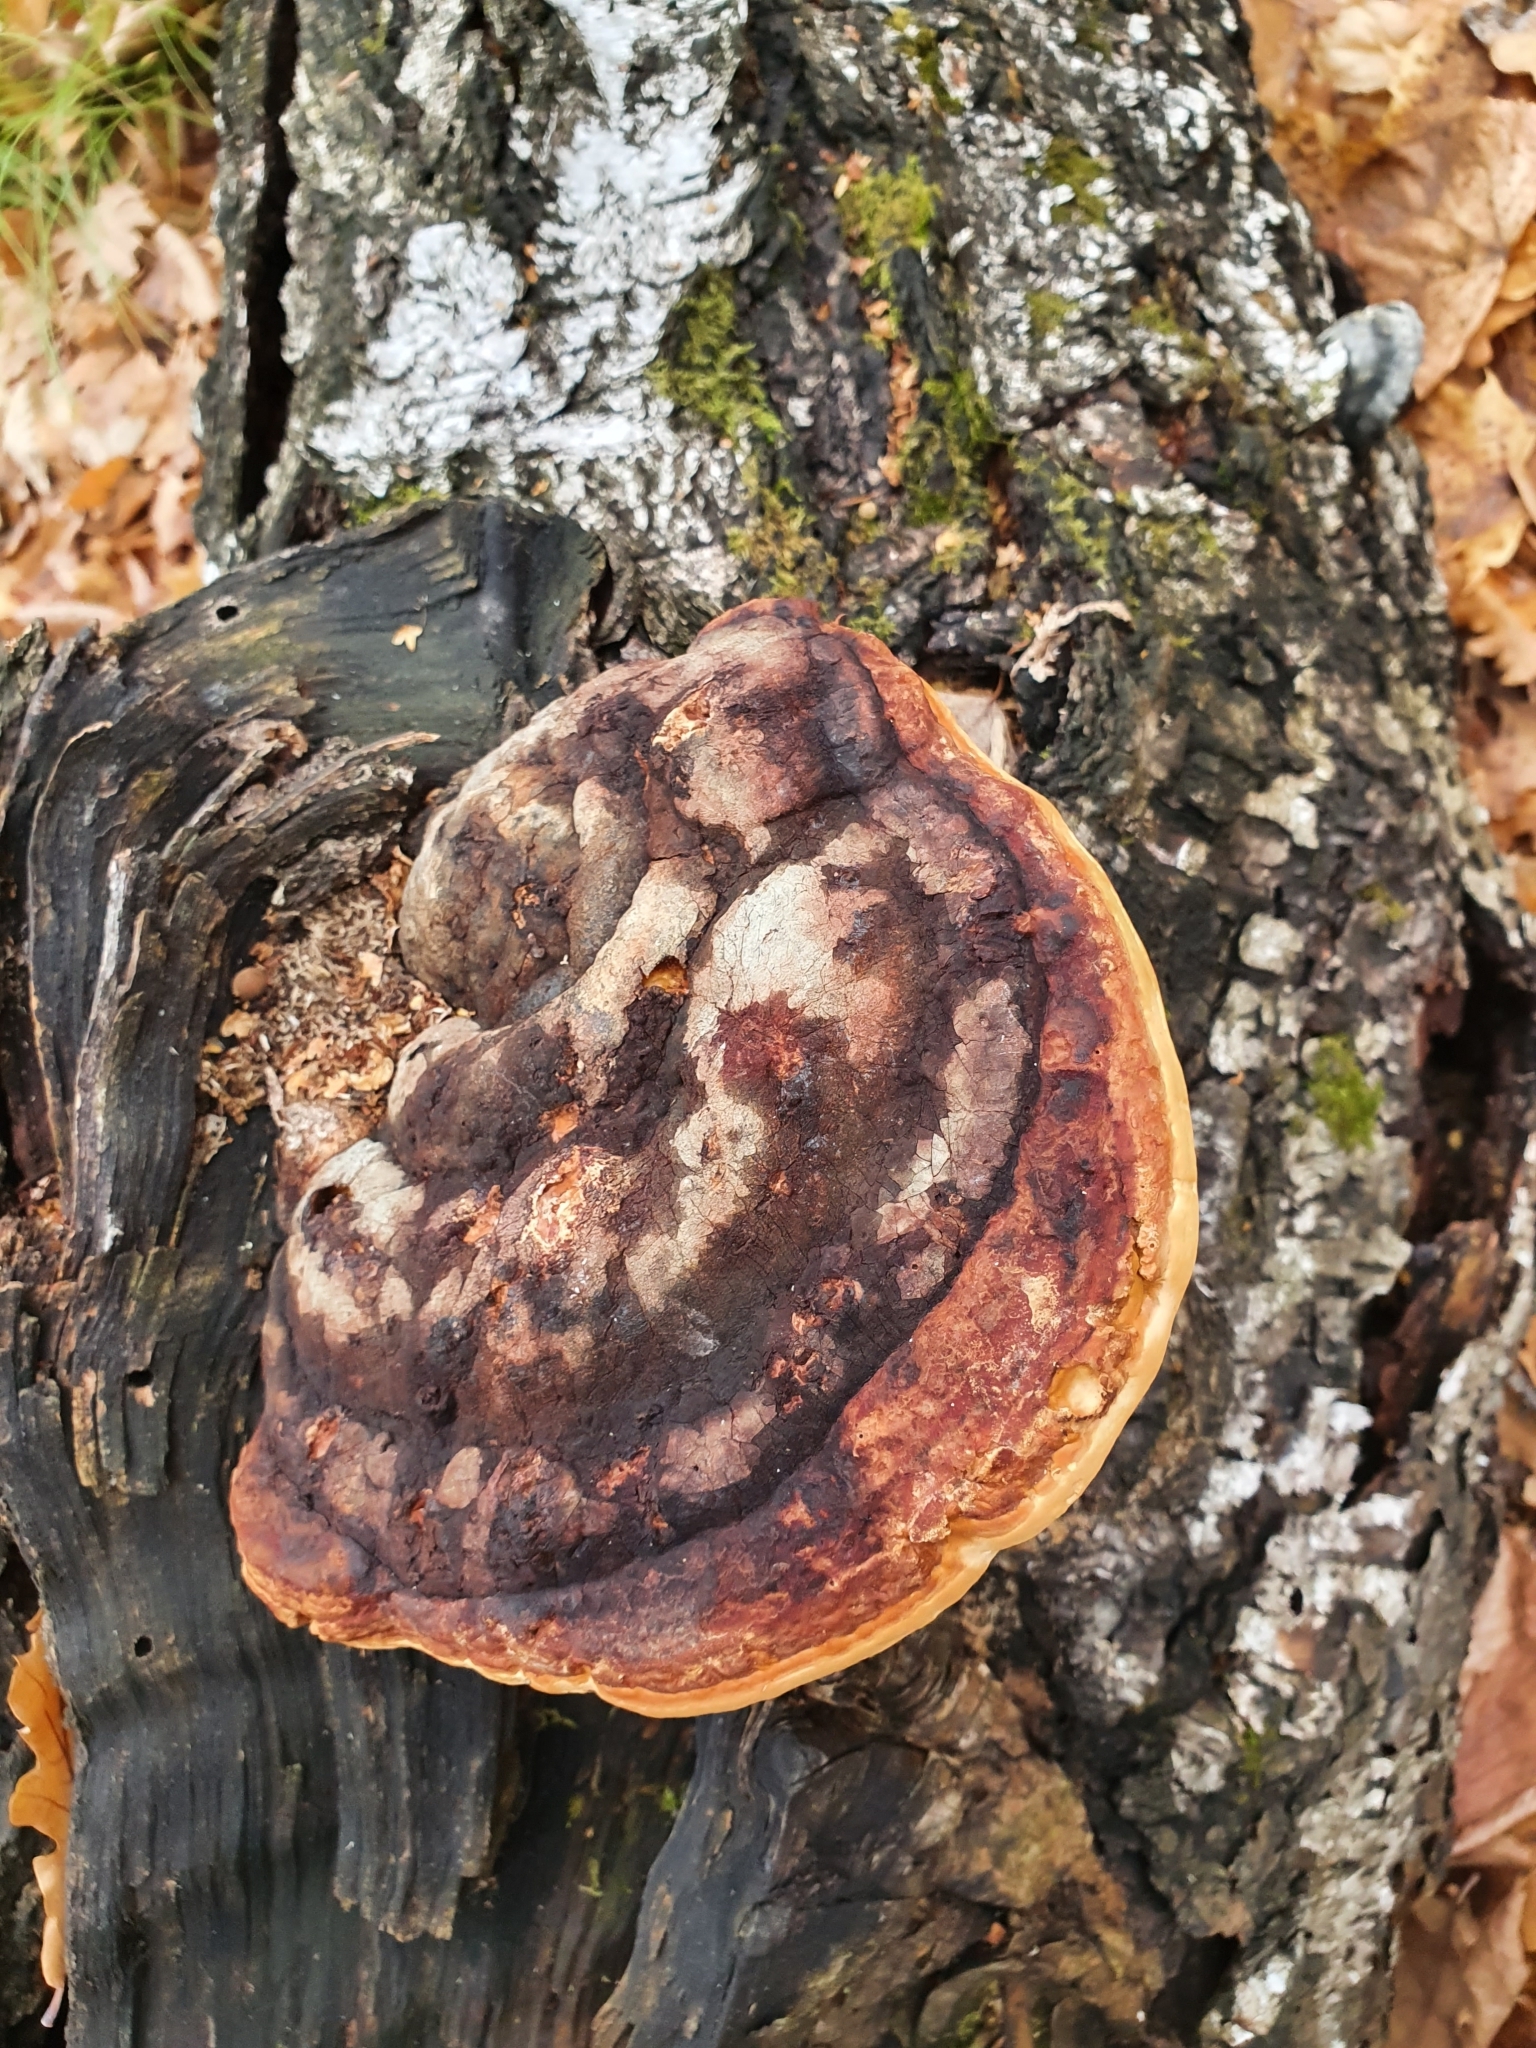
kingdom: Fungi
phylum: Basidiomycota
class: Agaricomycetes
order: Polyporales
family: Fomitopsidaceae
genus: Fomitopsis
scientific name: Fomitopsis pinicola
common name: Red-belted bracket
